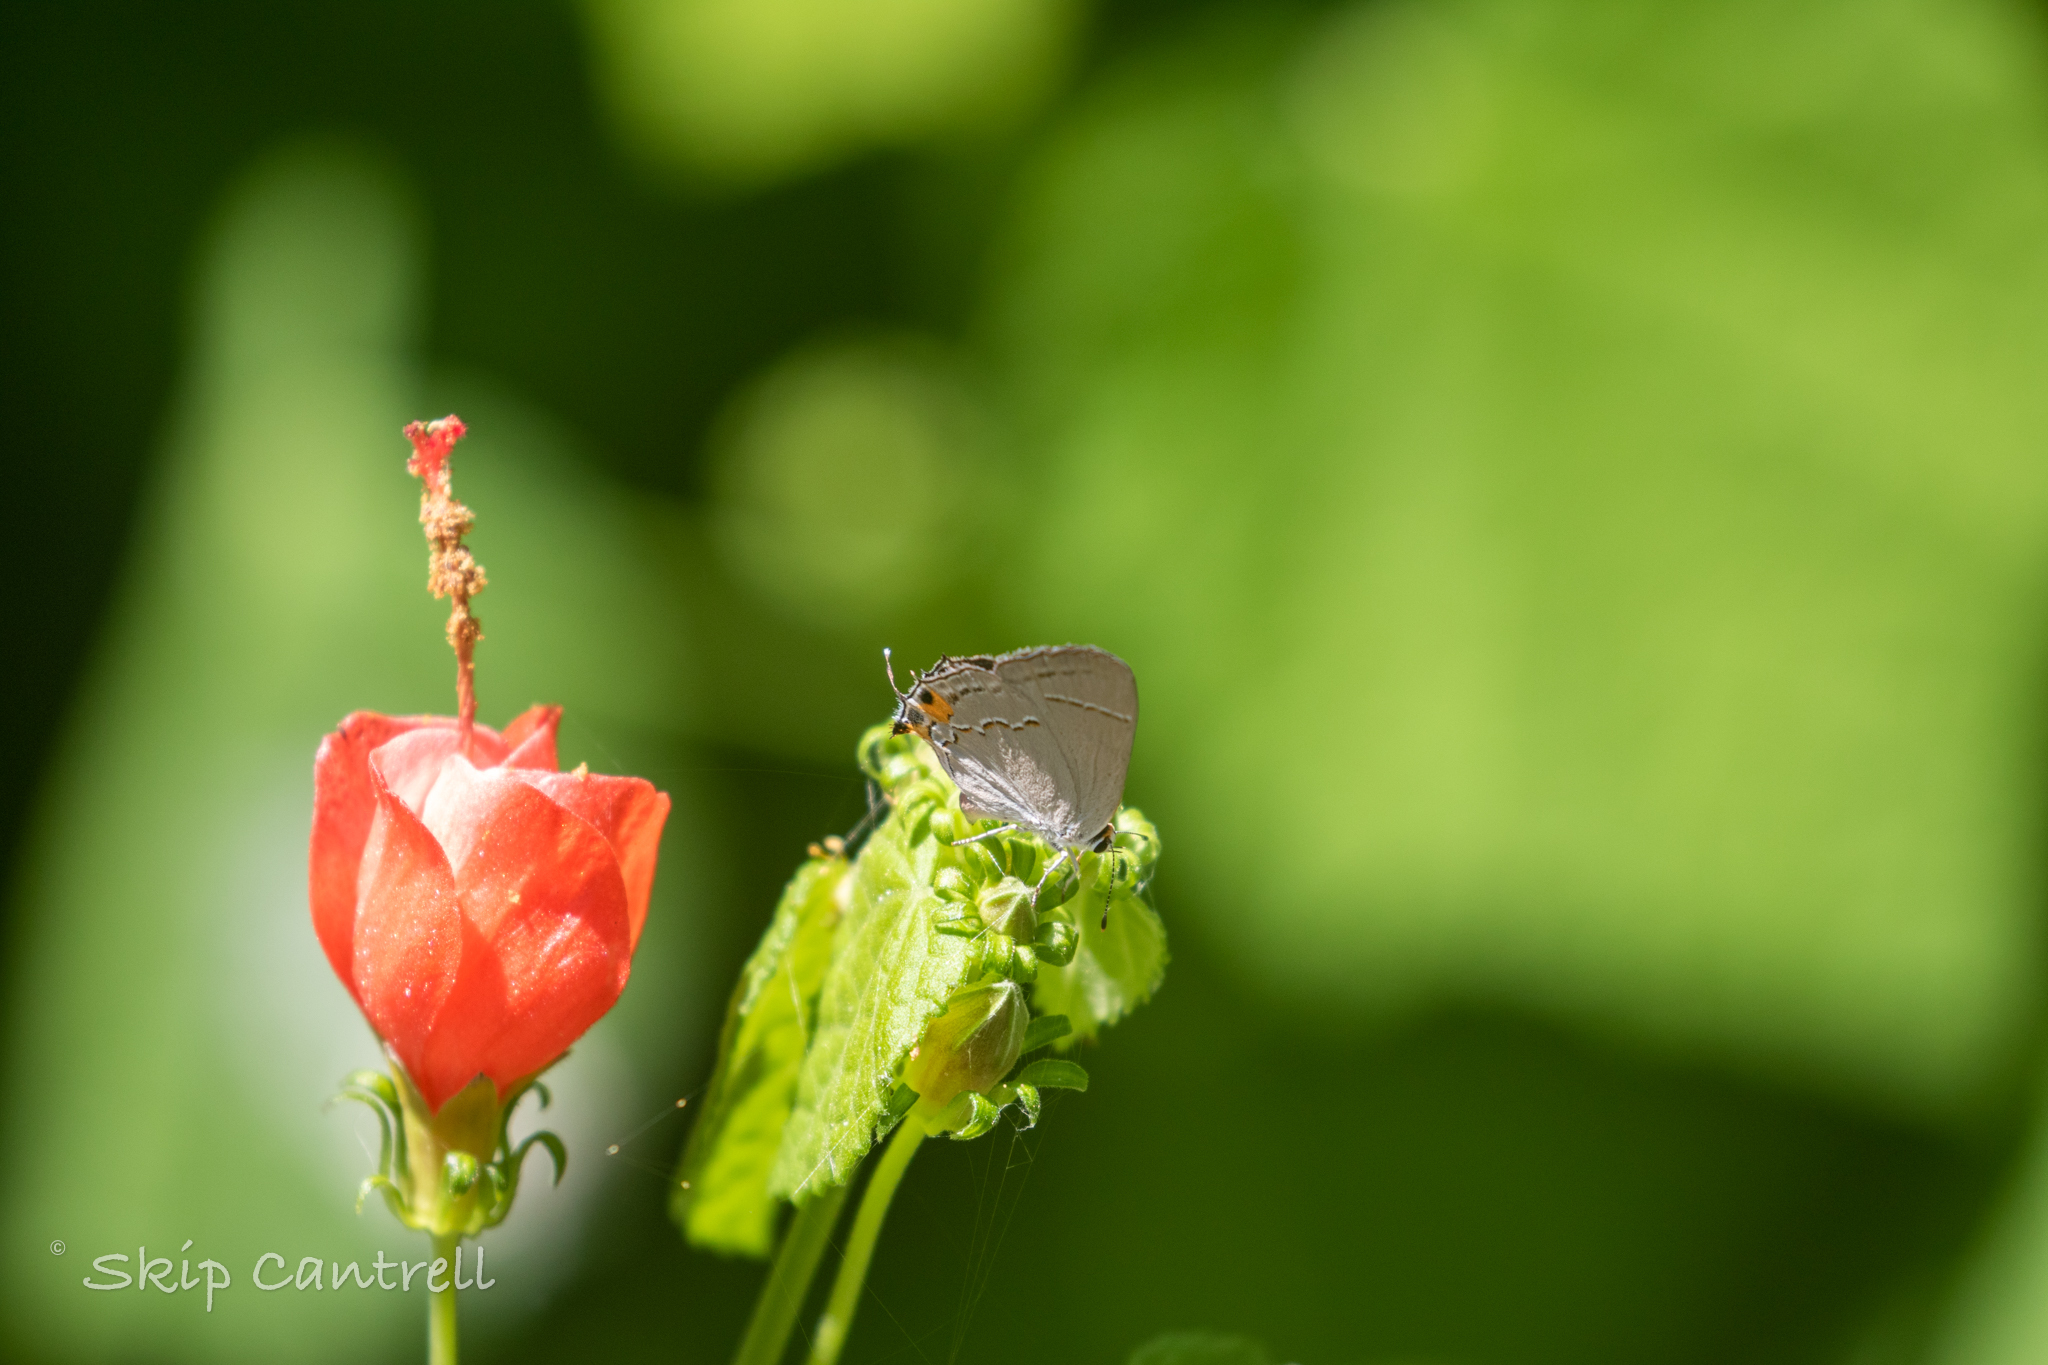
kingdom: Animalia
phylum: Arthropoda
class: Insecta
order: Lepidoptera
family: Lycaenidae
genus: Strymon
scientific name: Strymon melinus
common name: Gray hairstreak
